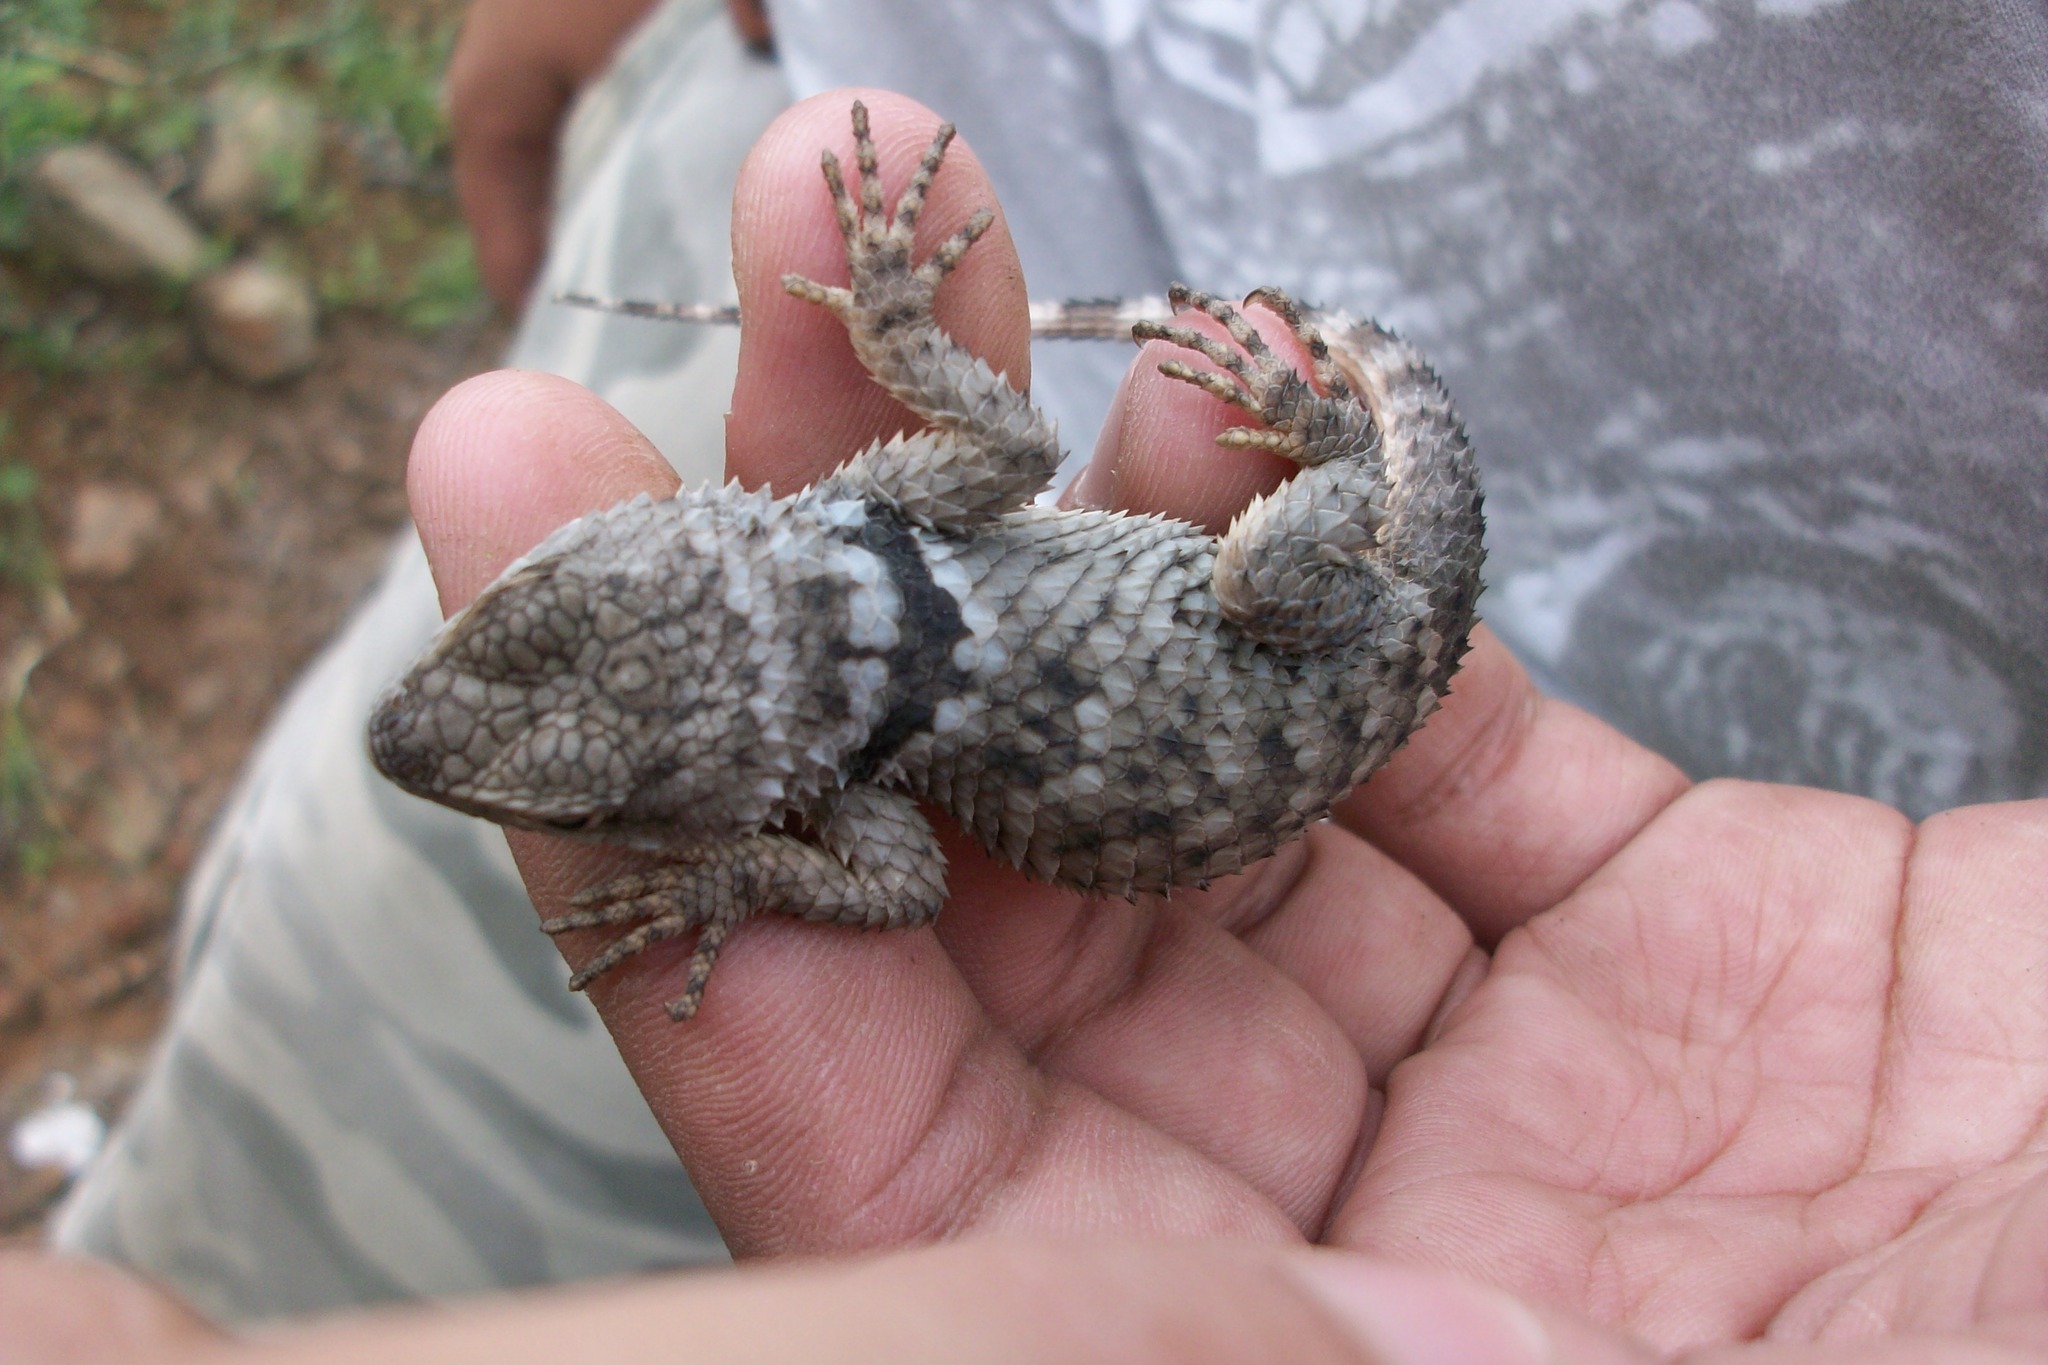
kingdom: Animalia
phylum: Chordata
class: Squamata
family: Phrynosomatidae
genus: Sceloporus
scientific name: Sceloporus poinsettii
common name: Crevice spiny lizard
